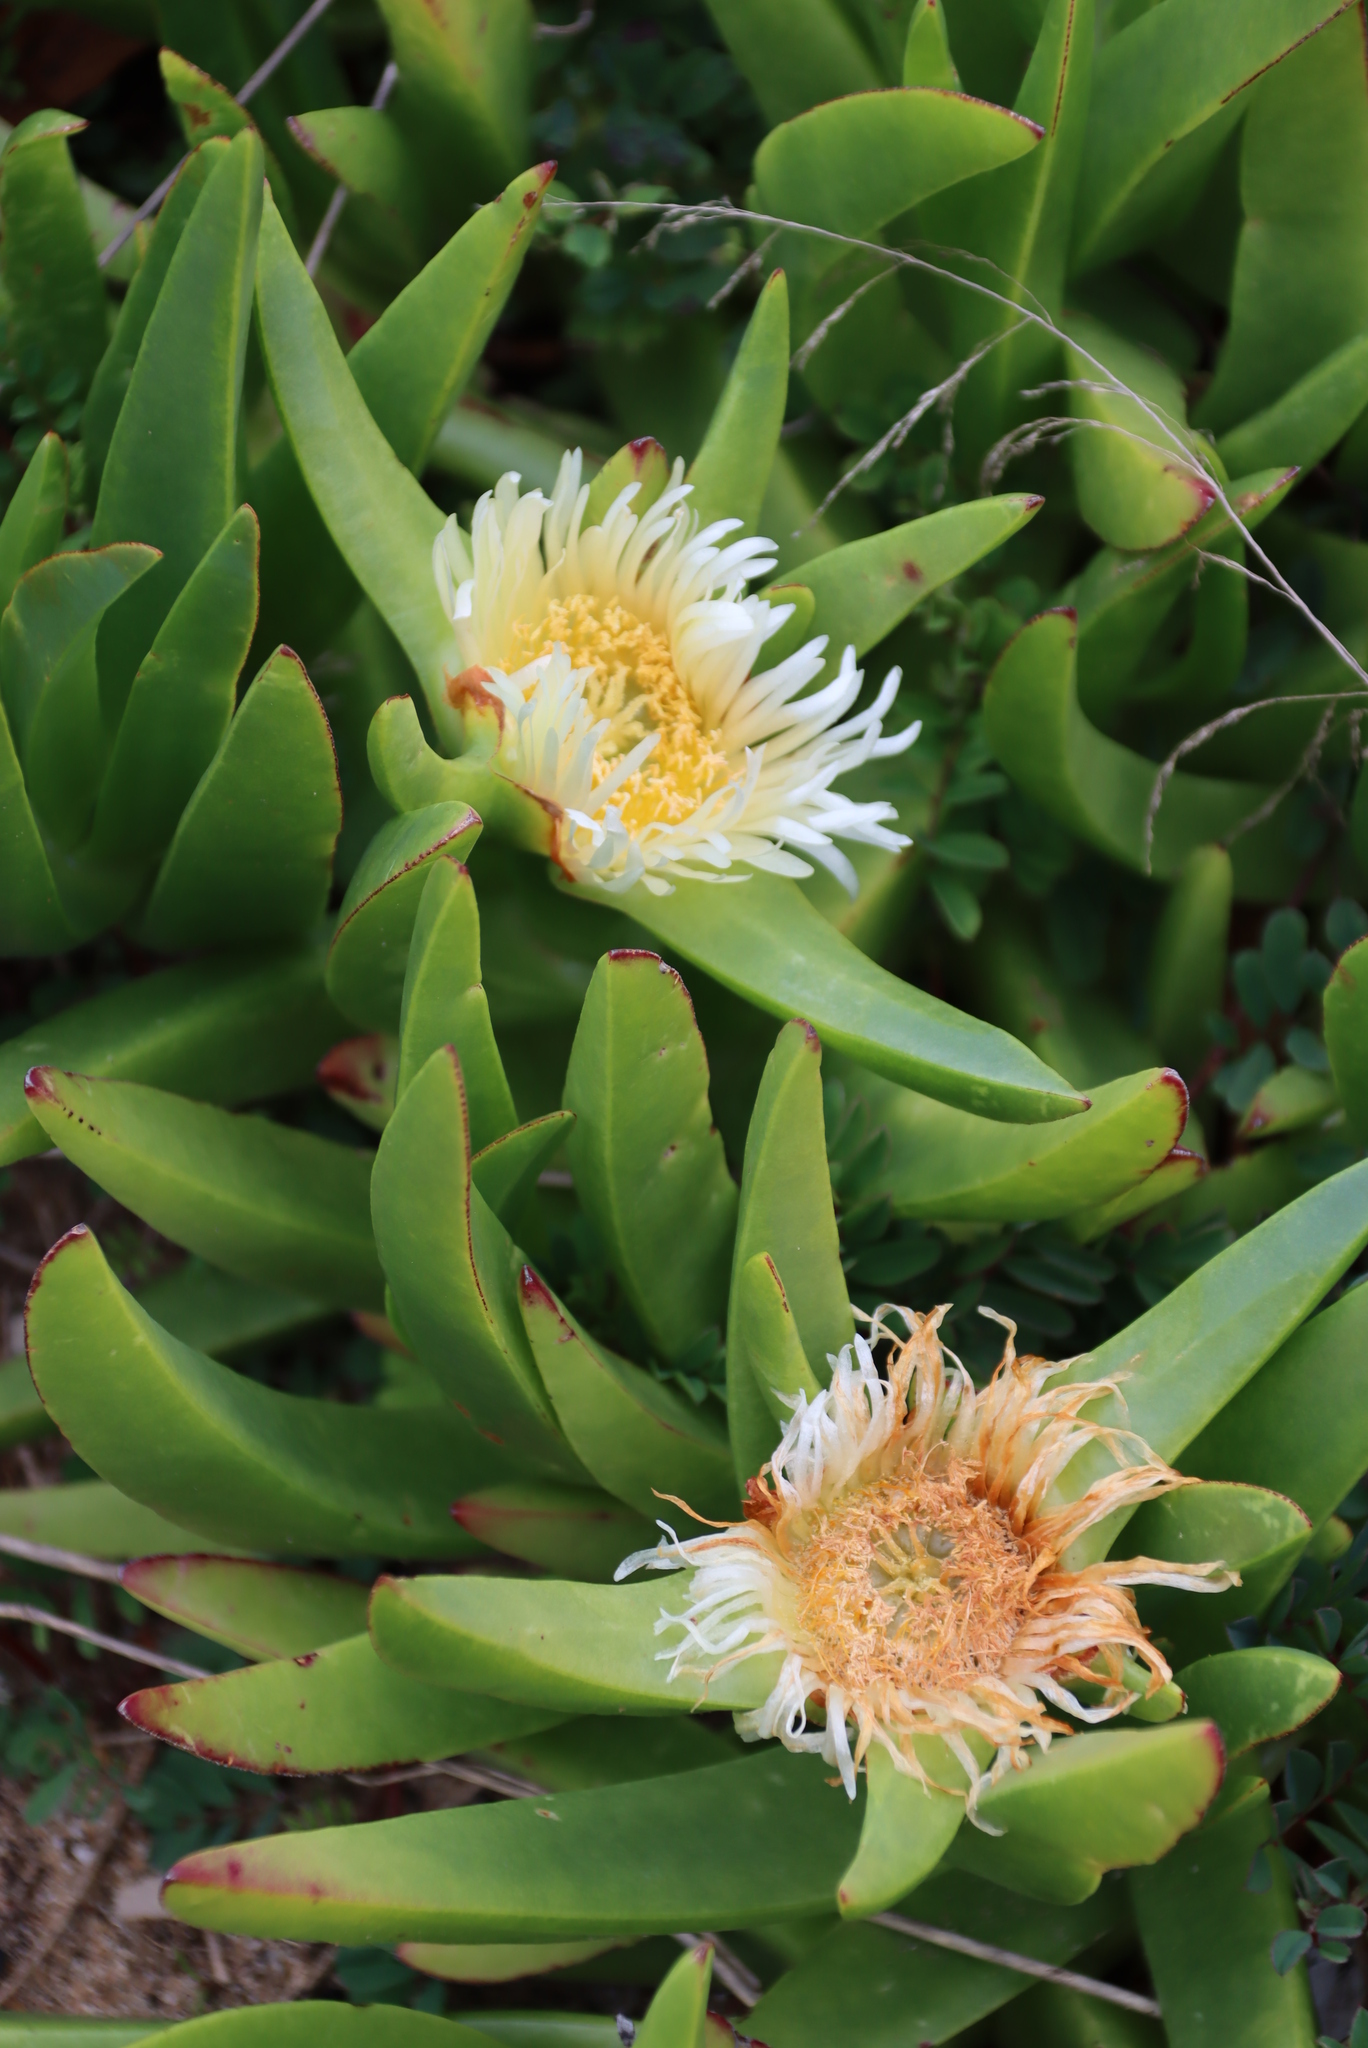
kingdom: Plantae
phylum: Tracheophyta
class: Magnoliopsida
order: Caryophyllales
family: Aizoaceae
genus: Carpobrotus
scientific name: Carpobrotus edulis
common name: Hottentot-fig
